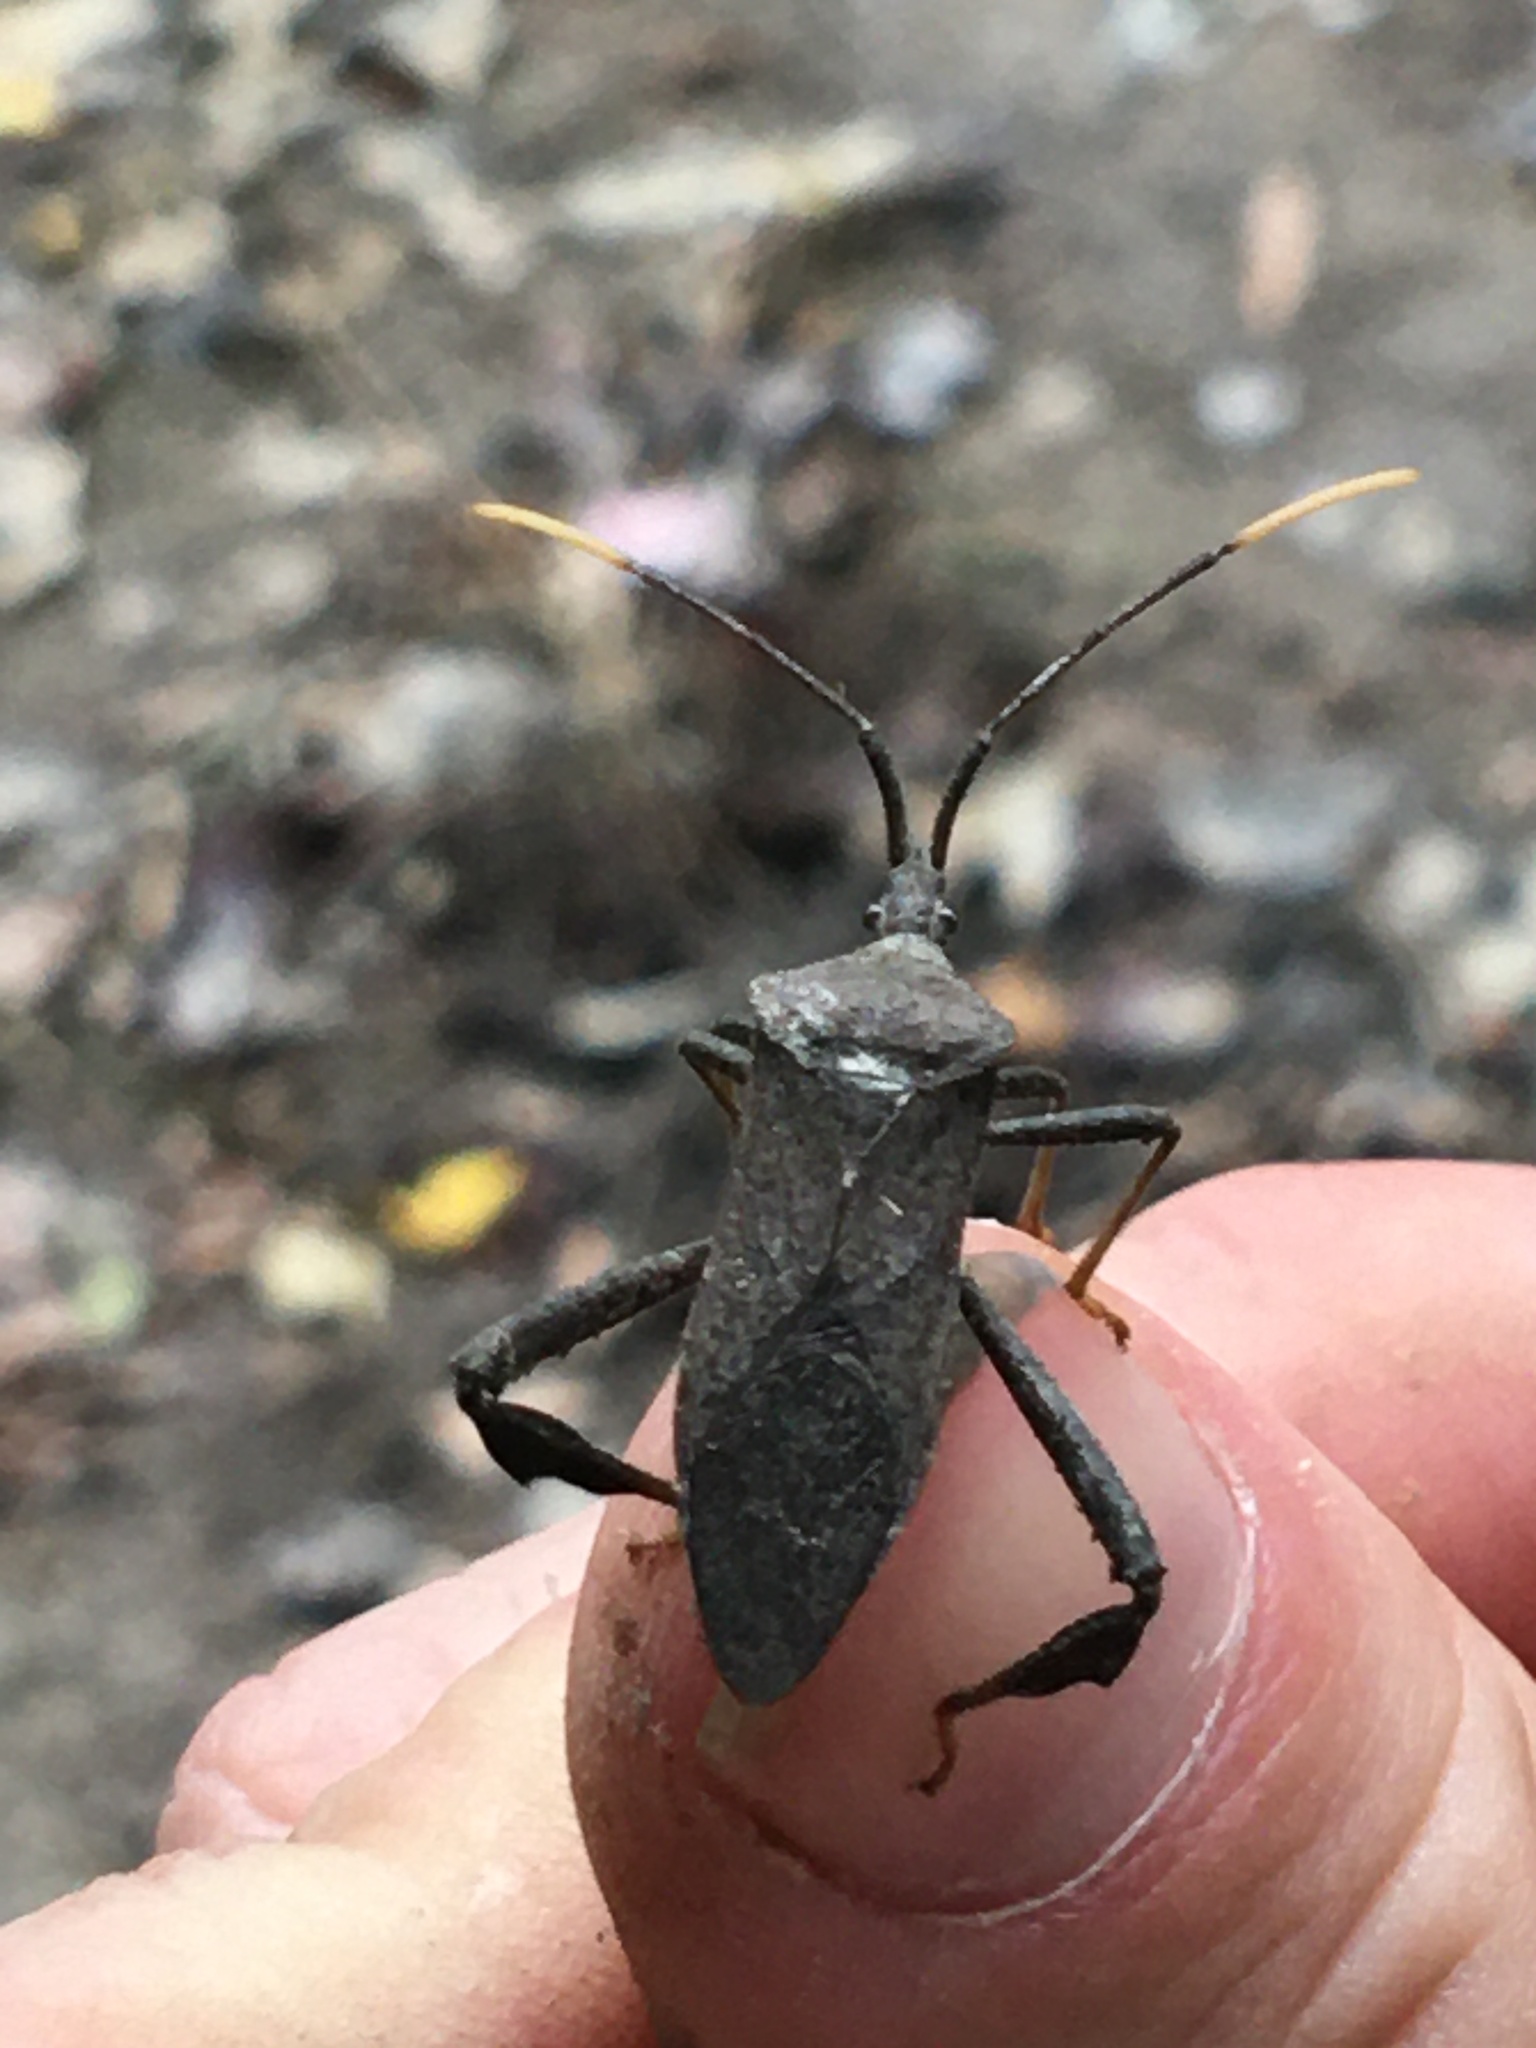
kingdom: Animalia
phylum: Arthropoda
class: Insecta
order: Hemiptera
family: Coreidae
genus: Acanthocephala
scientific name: Acanthocephala terminalis
